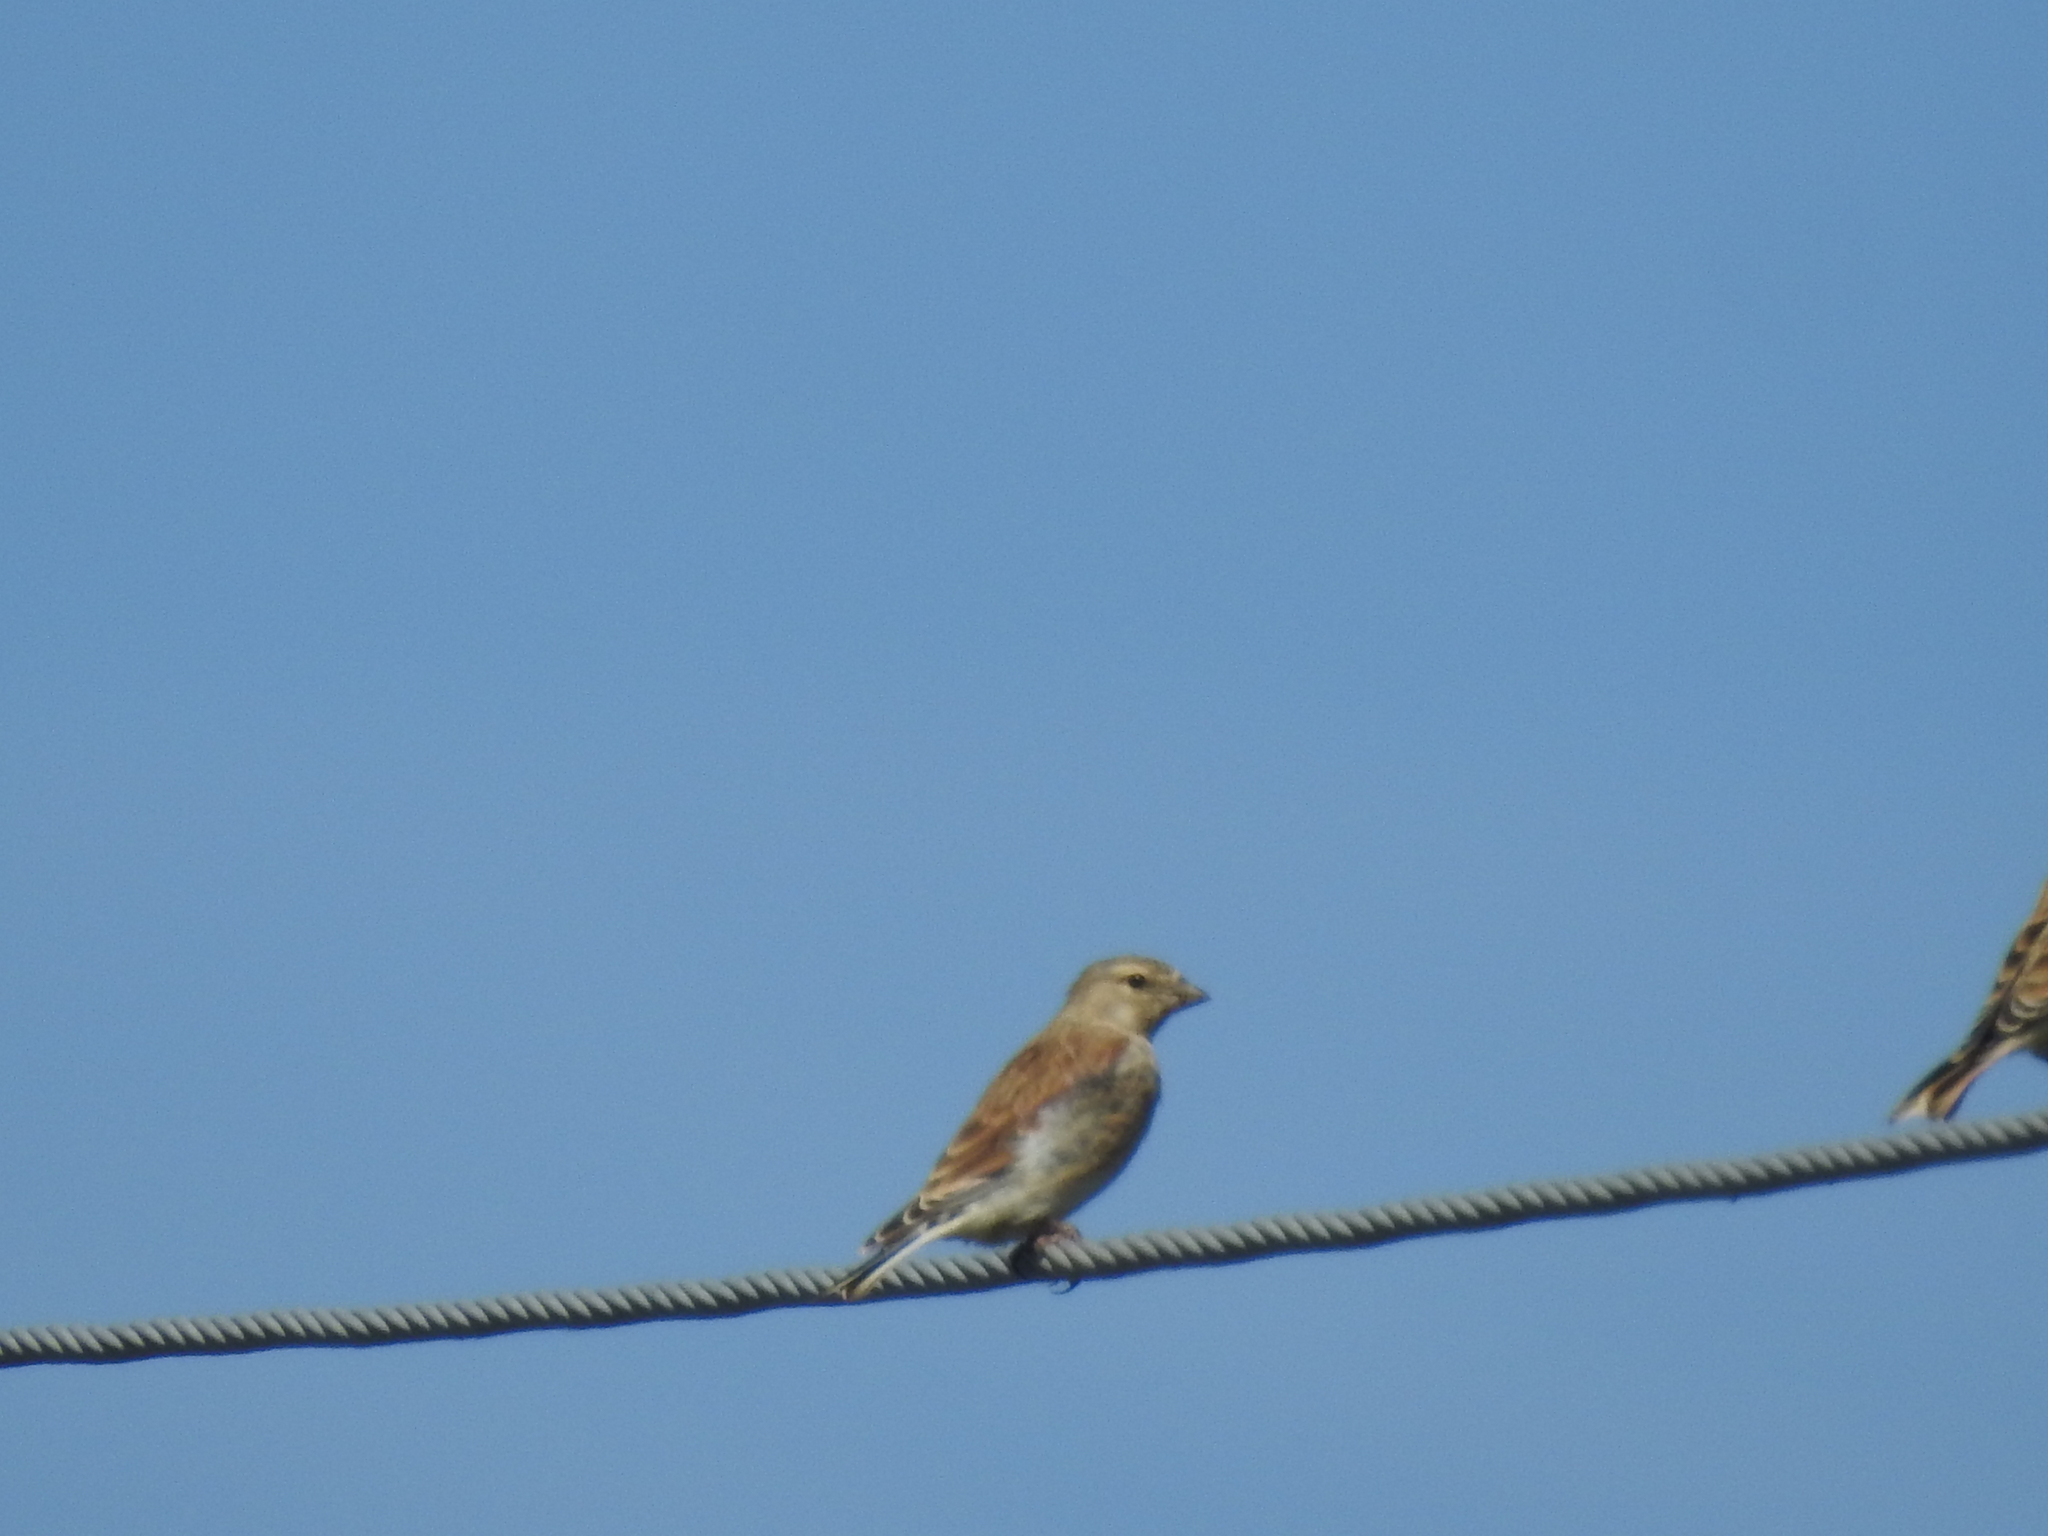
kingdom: Animalia
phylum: Chordata
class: Aves
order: Passeriformes
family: Fringillidae
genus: Linaria
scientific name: Linaria cannabina
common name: Common linnet
